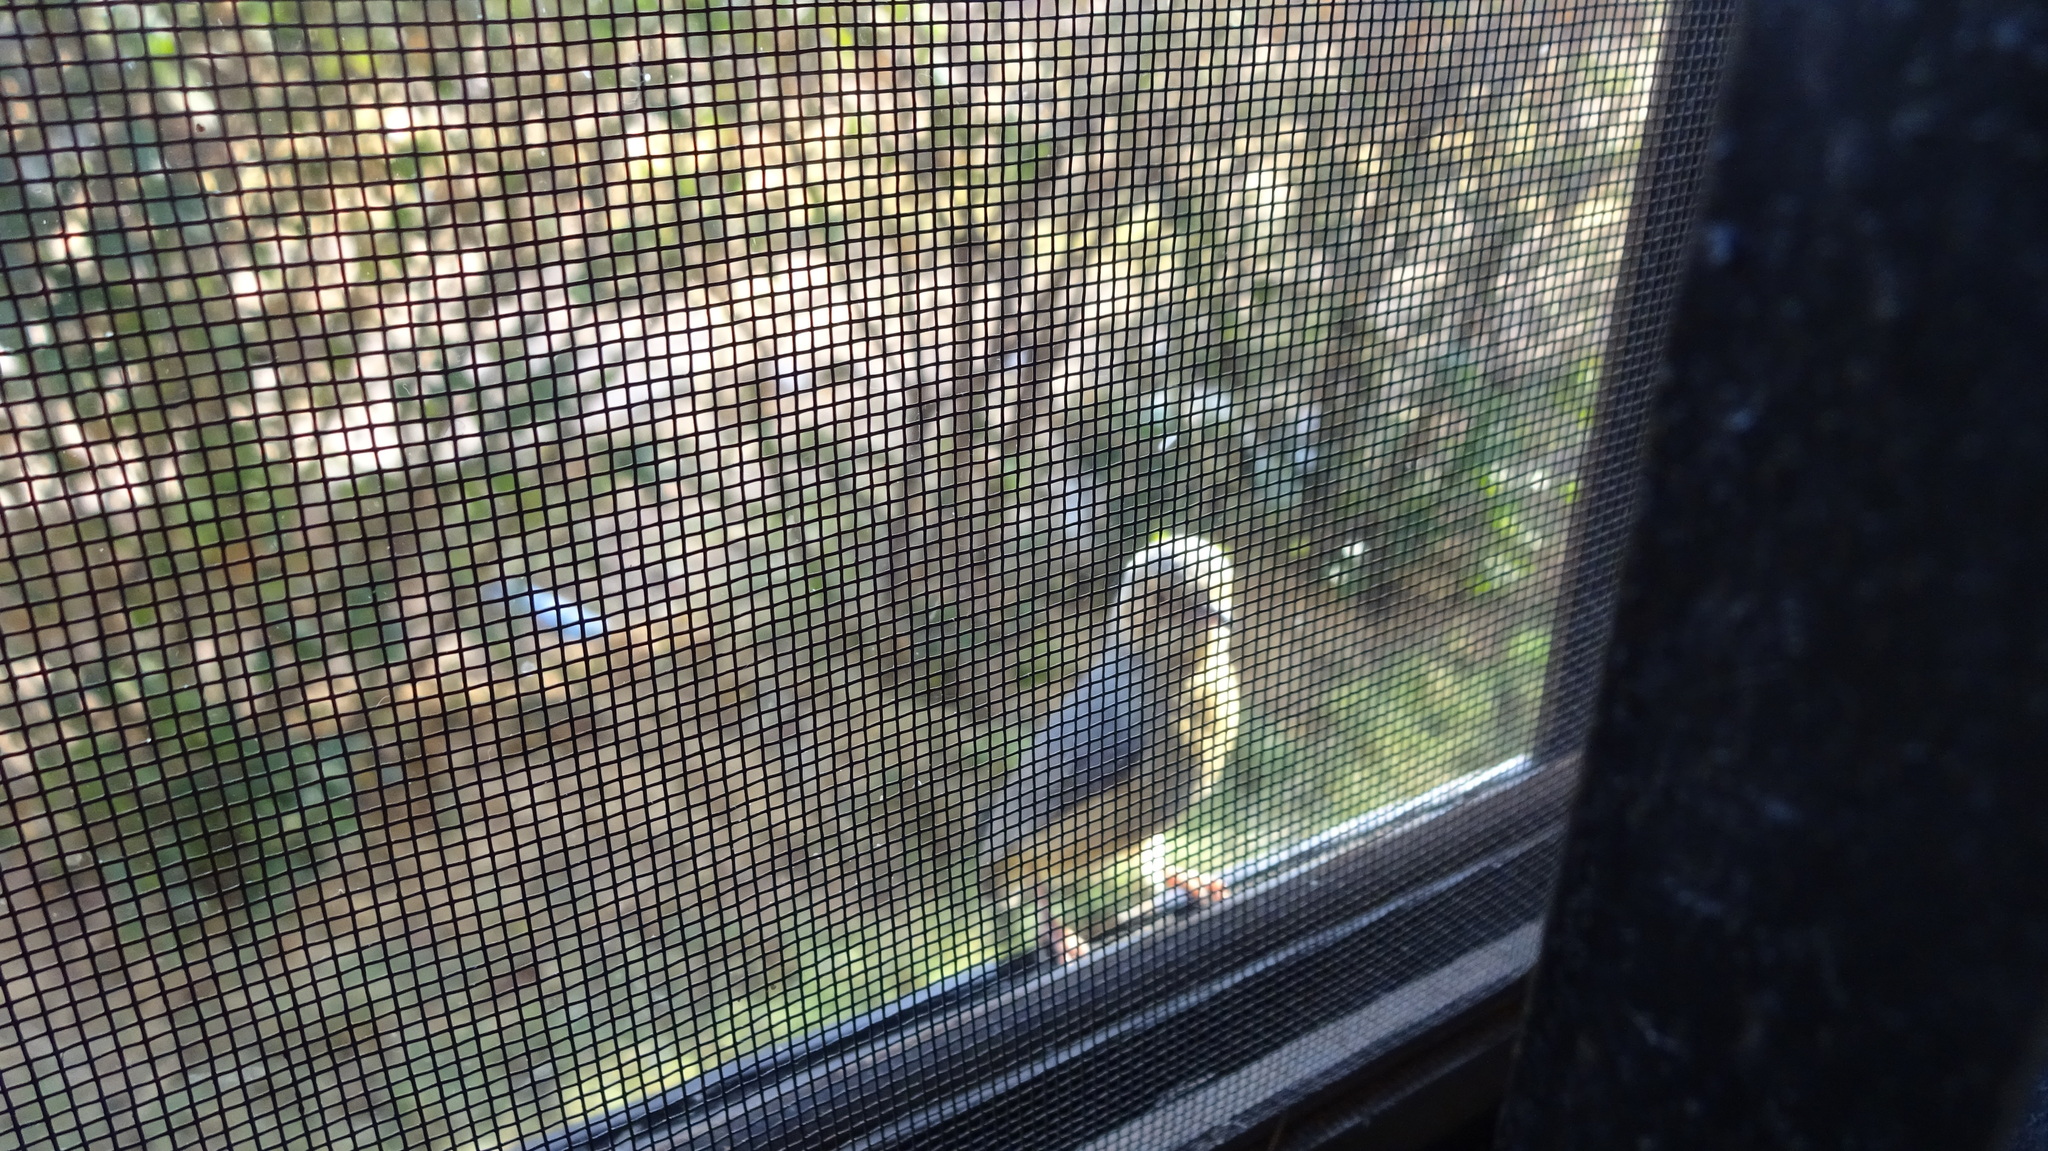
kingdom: Animalia
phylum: Chordata
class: Aves
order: Passeriformes
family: Macrosphenidae
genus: Sylvietta
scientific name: Sylvietta whytii
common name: Red-faced crombec
